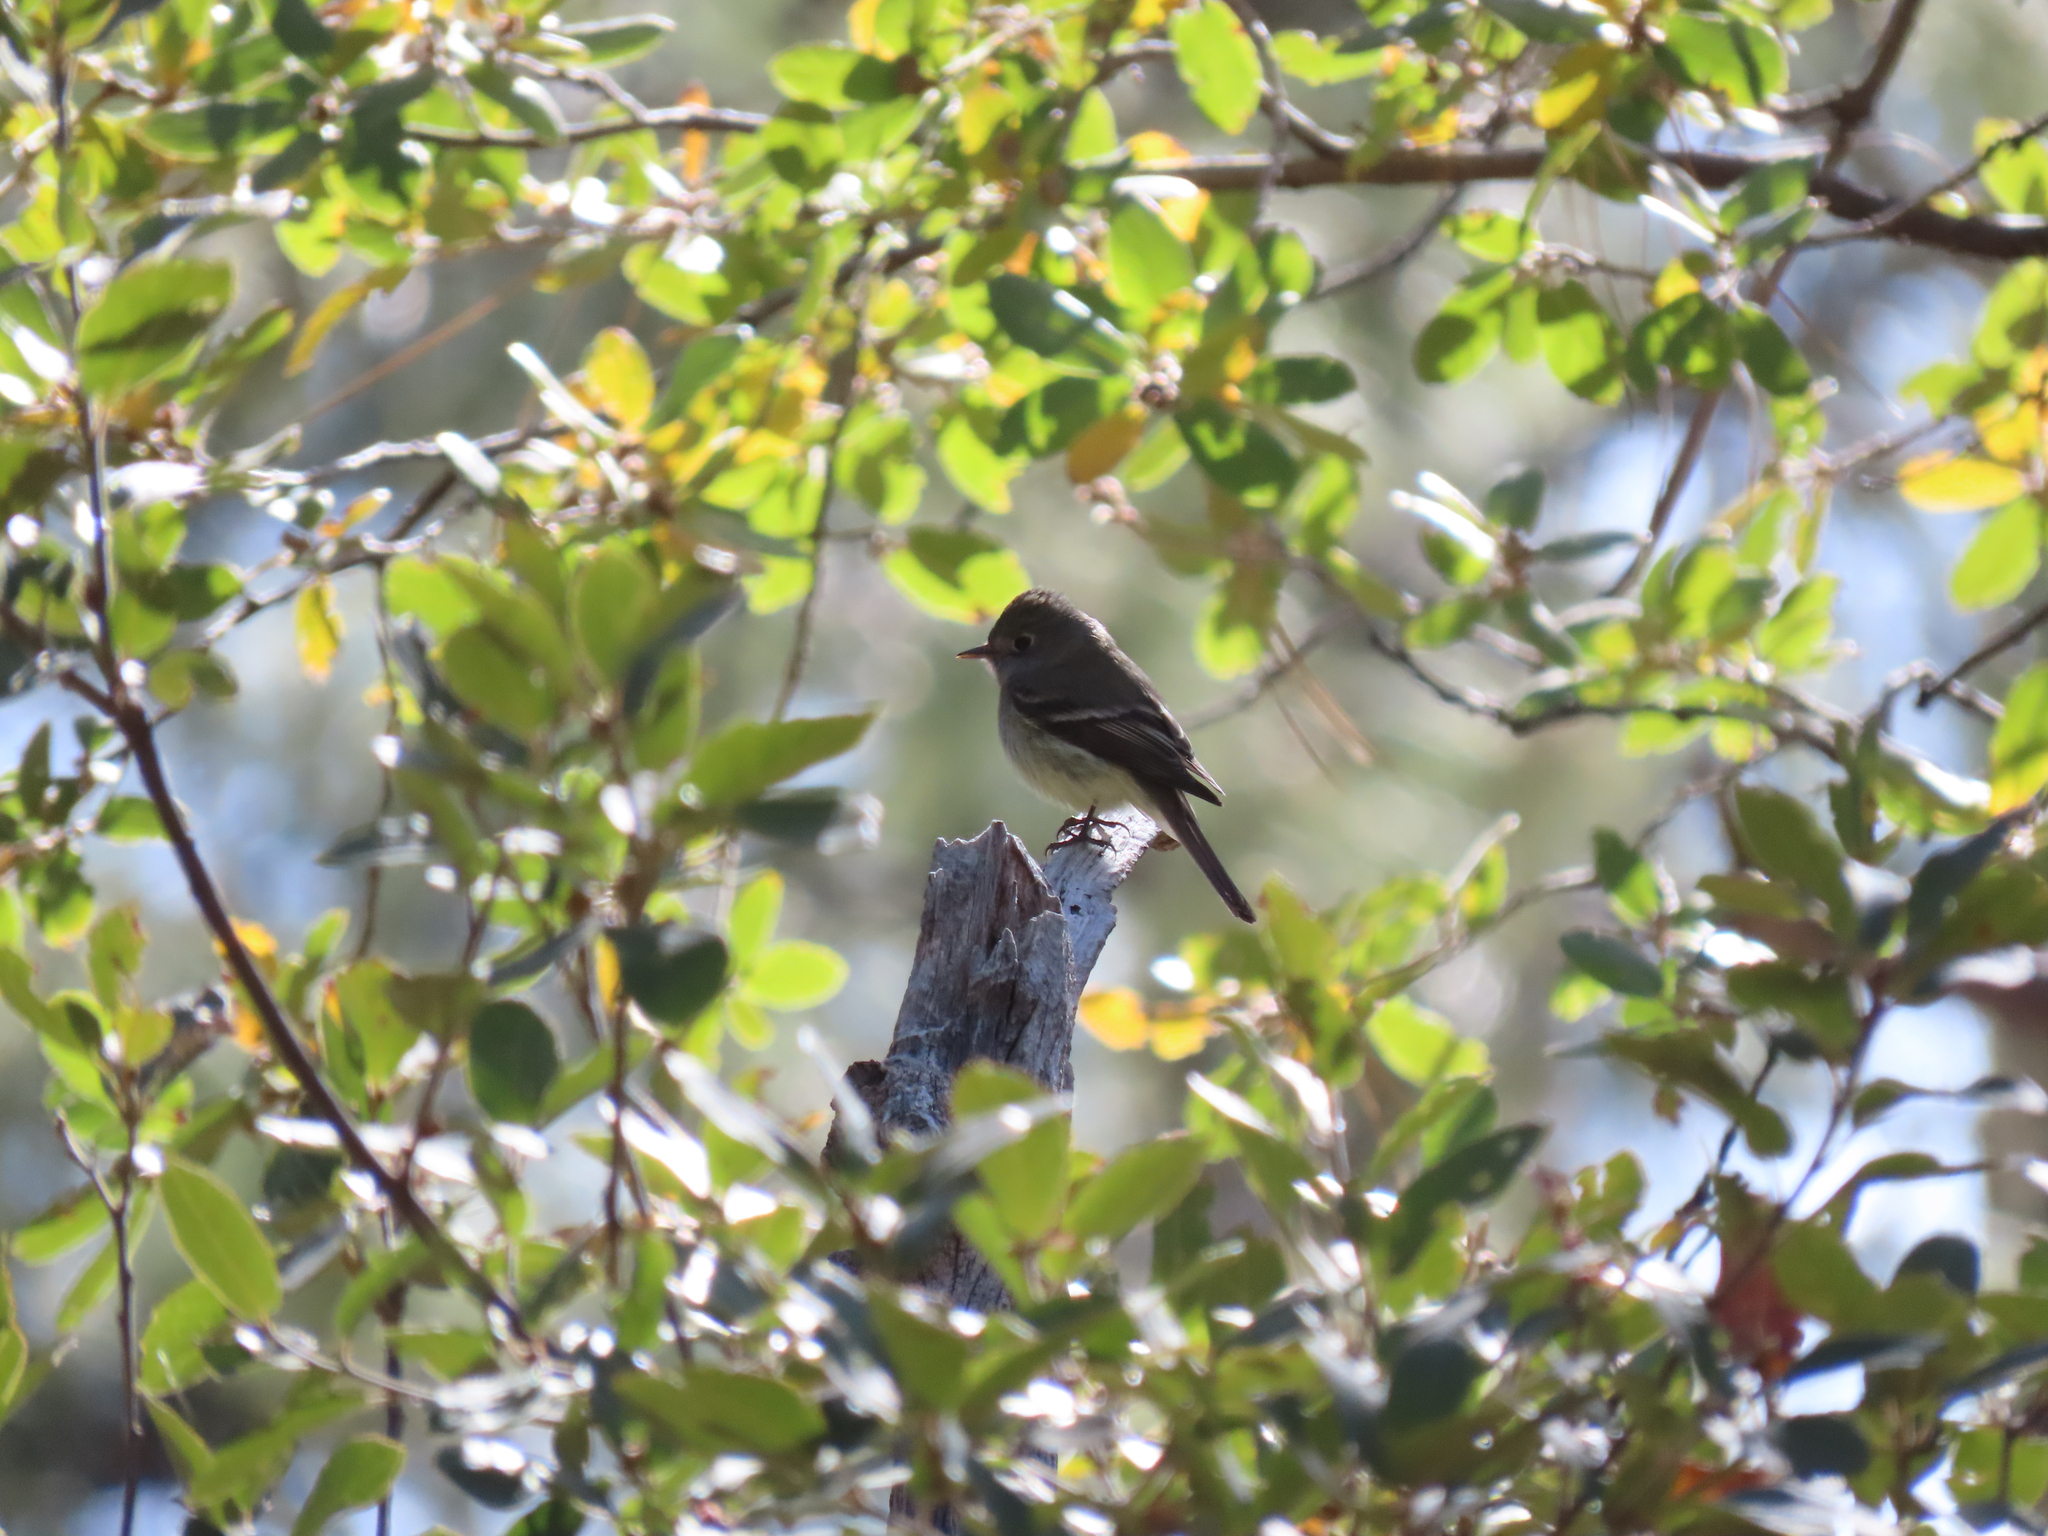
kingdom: Animalia
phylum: Chordata
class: Aves
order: Passeriformes
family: Tyrannidae
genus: Empidonax
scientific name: Empidonax hammondii
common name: Hammond's flycatcher
